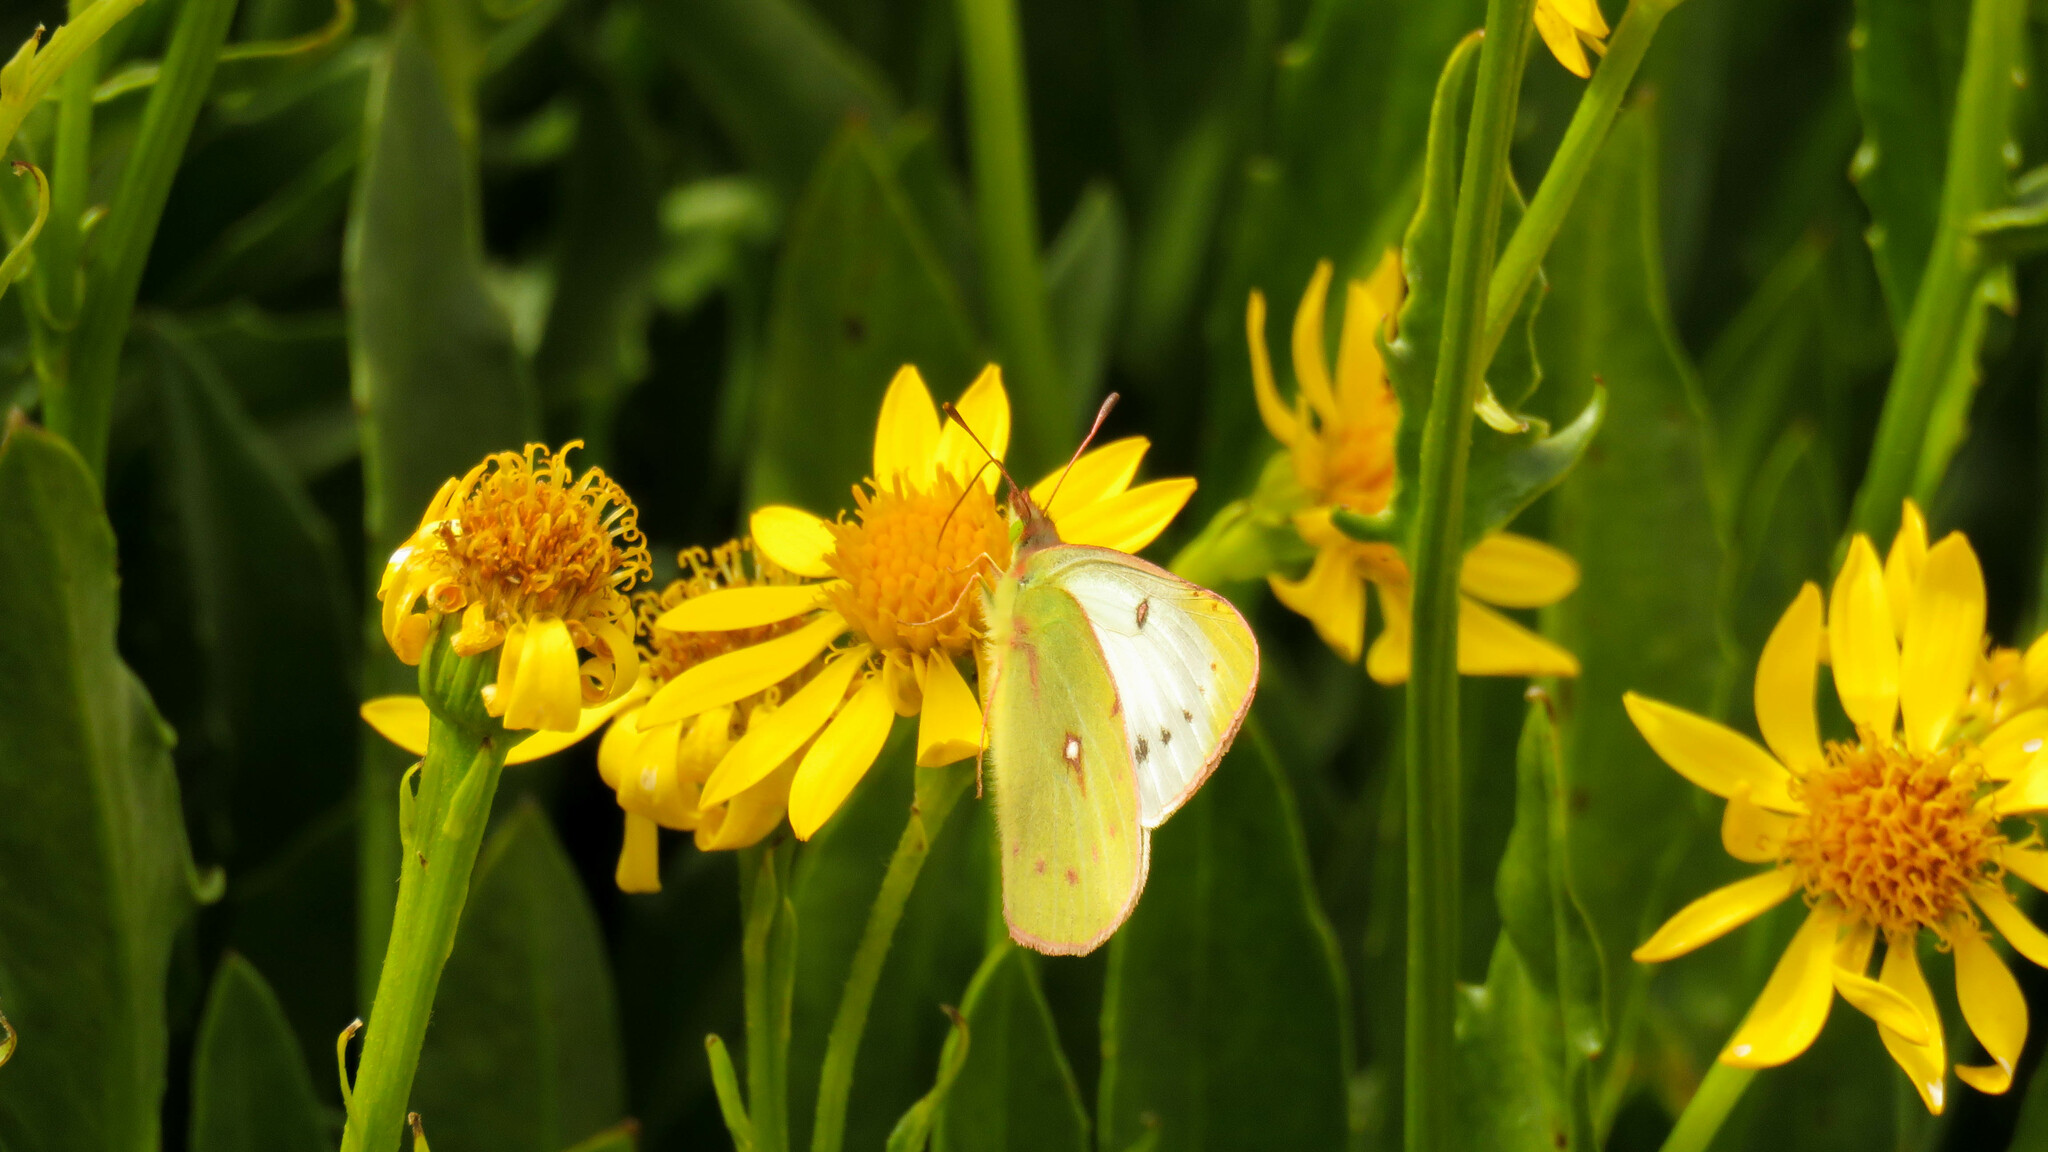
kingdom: Animalia
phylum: Arthropoda
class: Insecta
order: Lepidoptera
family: Pieridae
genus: Colias
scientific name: Colias vauthierii
